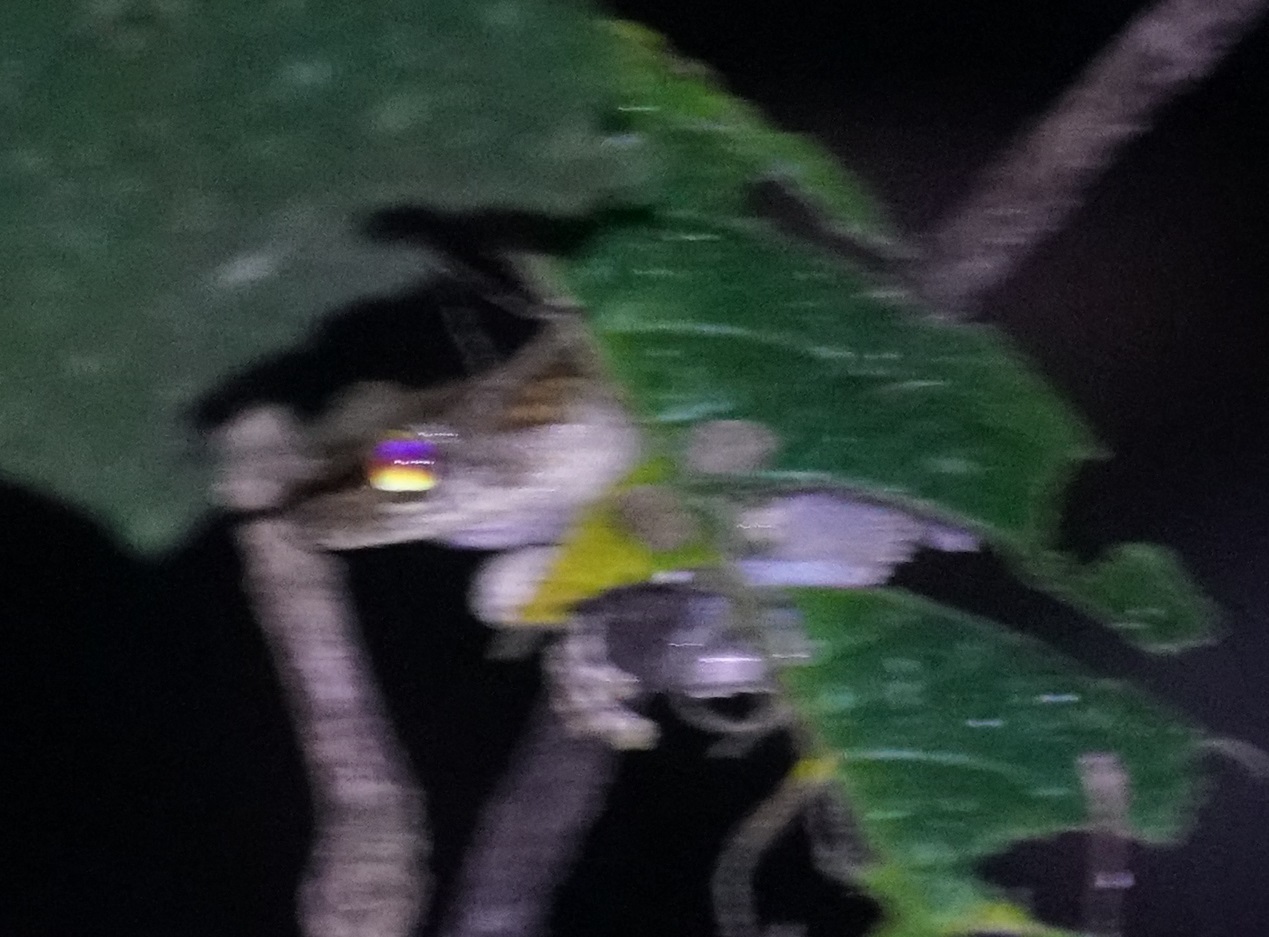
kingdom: Animalia
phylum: Chordata
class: Amphibia
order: Anura
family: Pelodryadidae
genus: Ranoidea
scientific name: Ranoidea serrata
